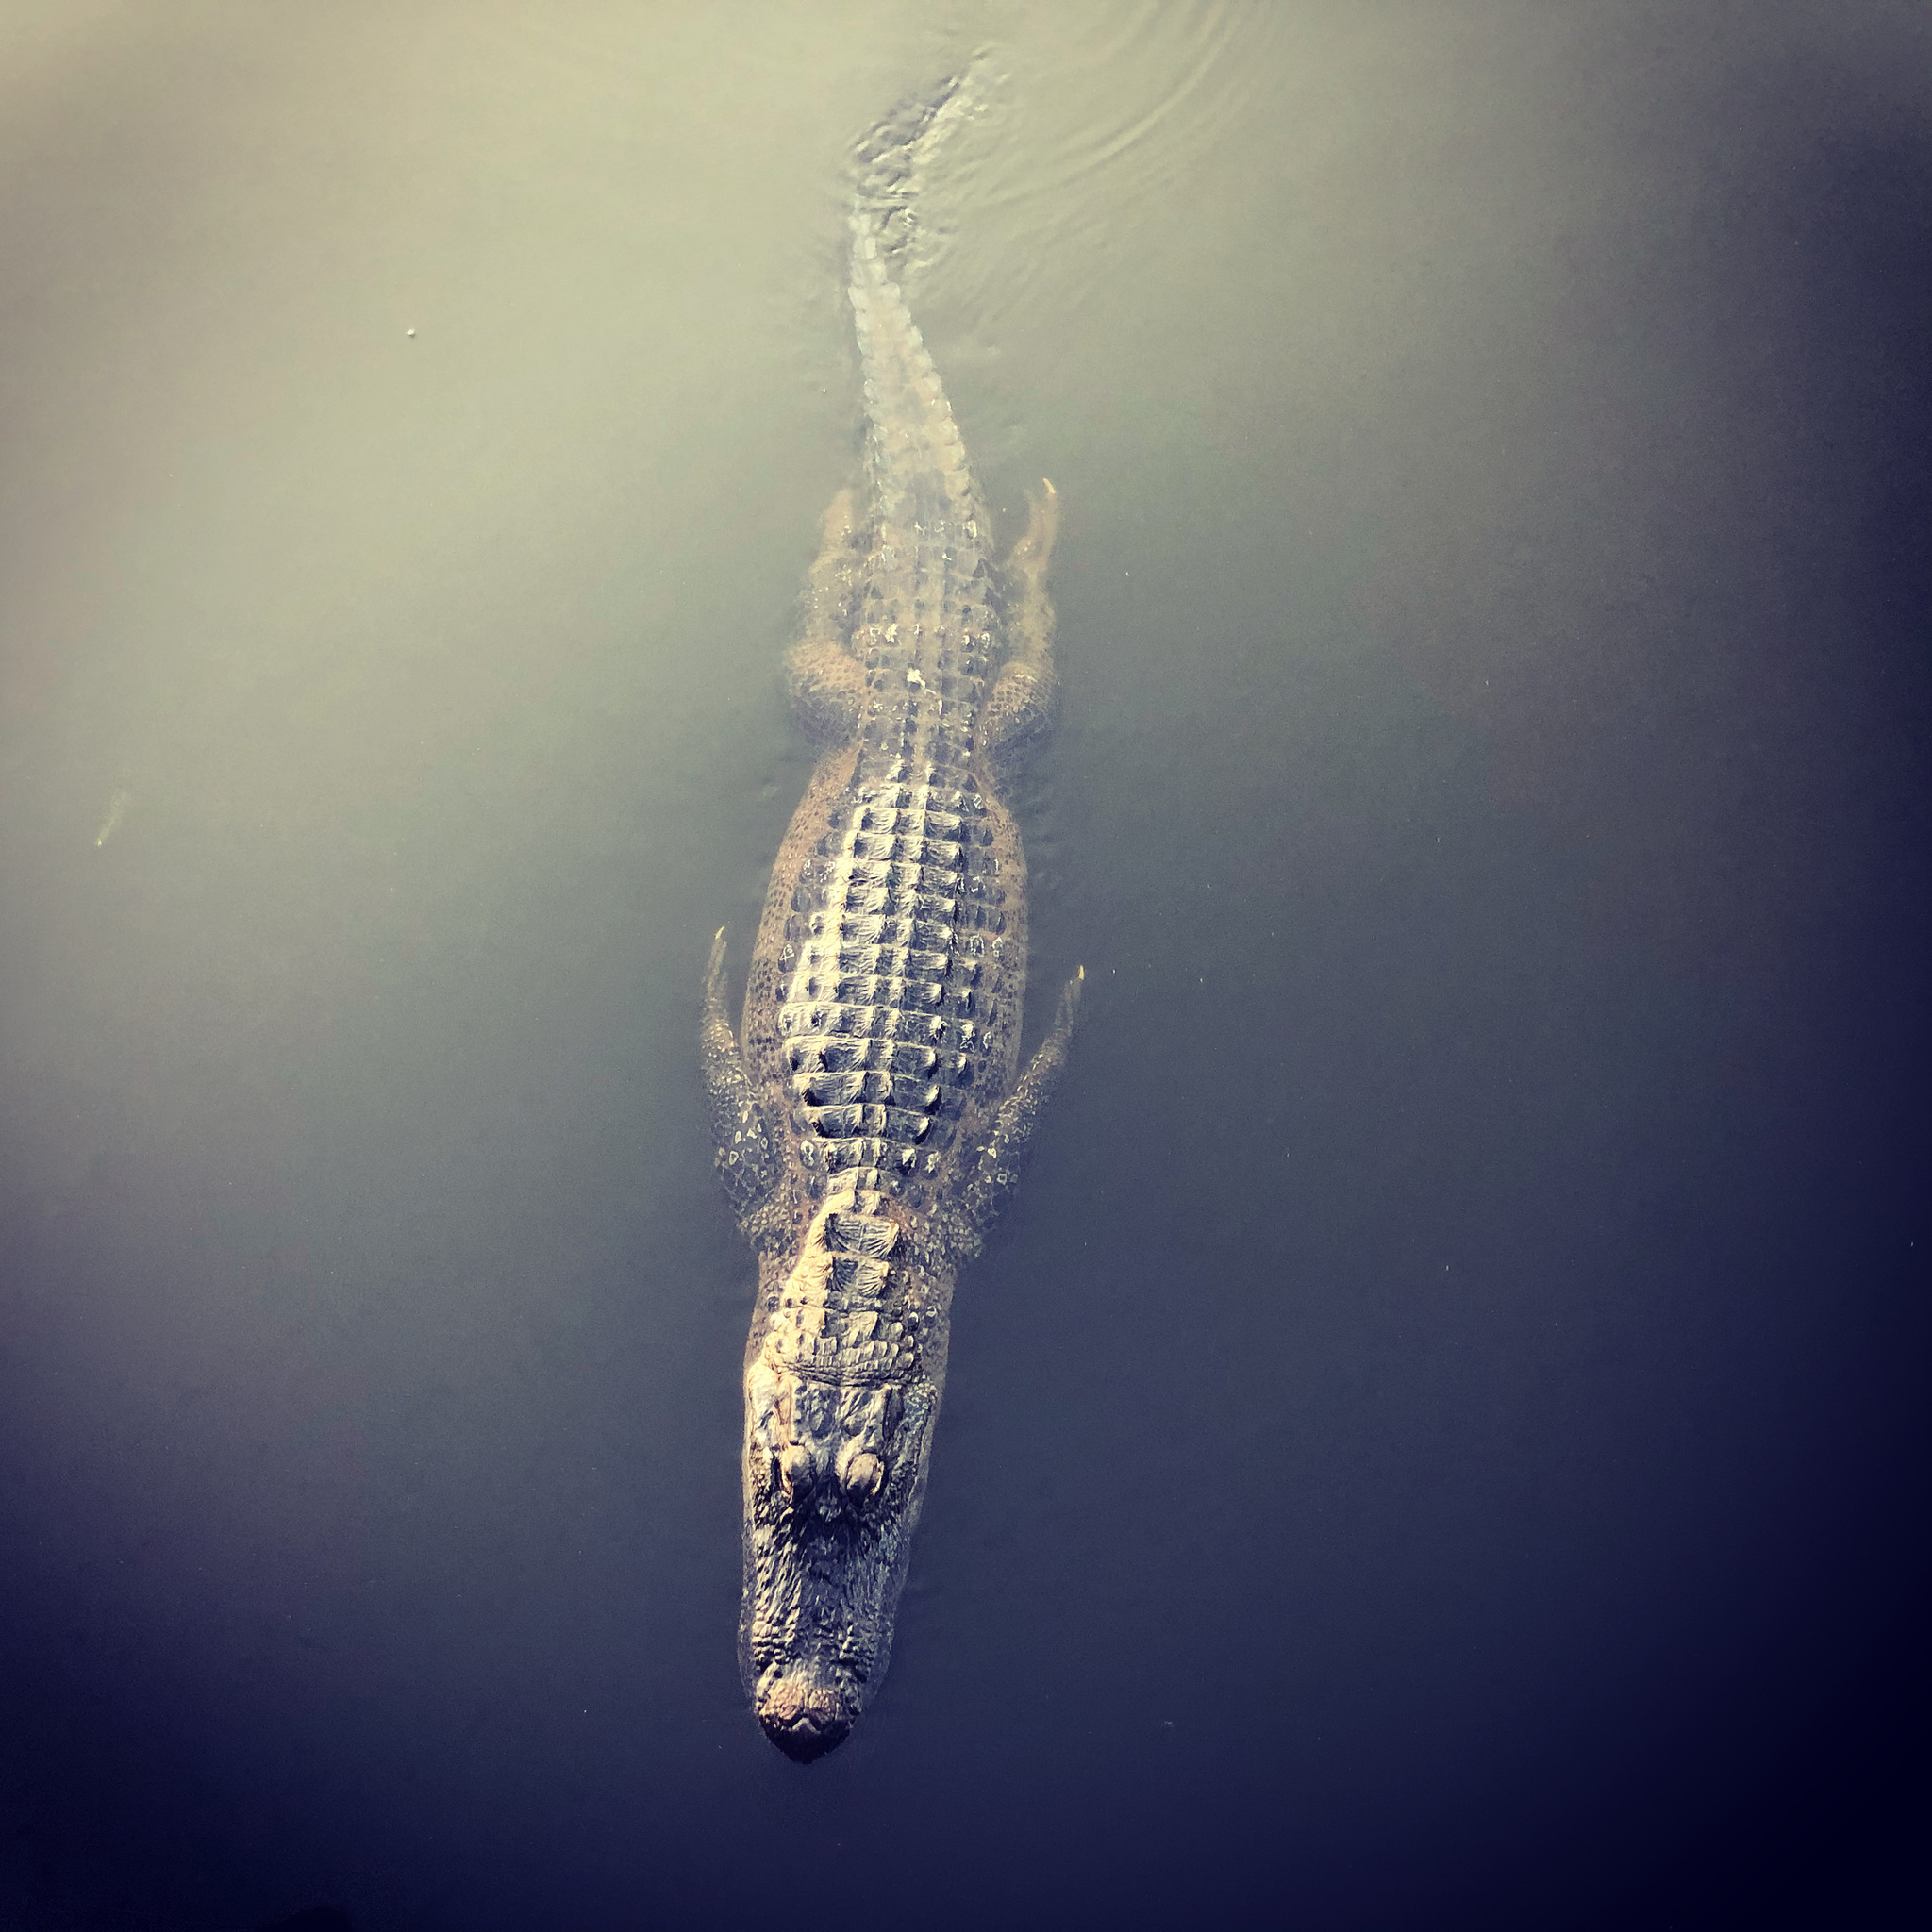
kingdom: Animalia
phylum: Chordata
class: Crocodylia
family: Alligatoridae
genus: Alligator
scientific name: Alligator mississippiensis
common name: American alligator
